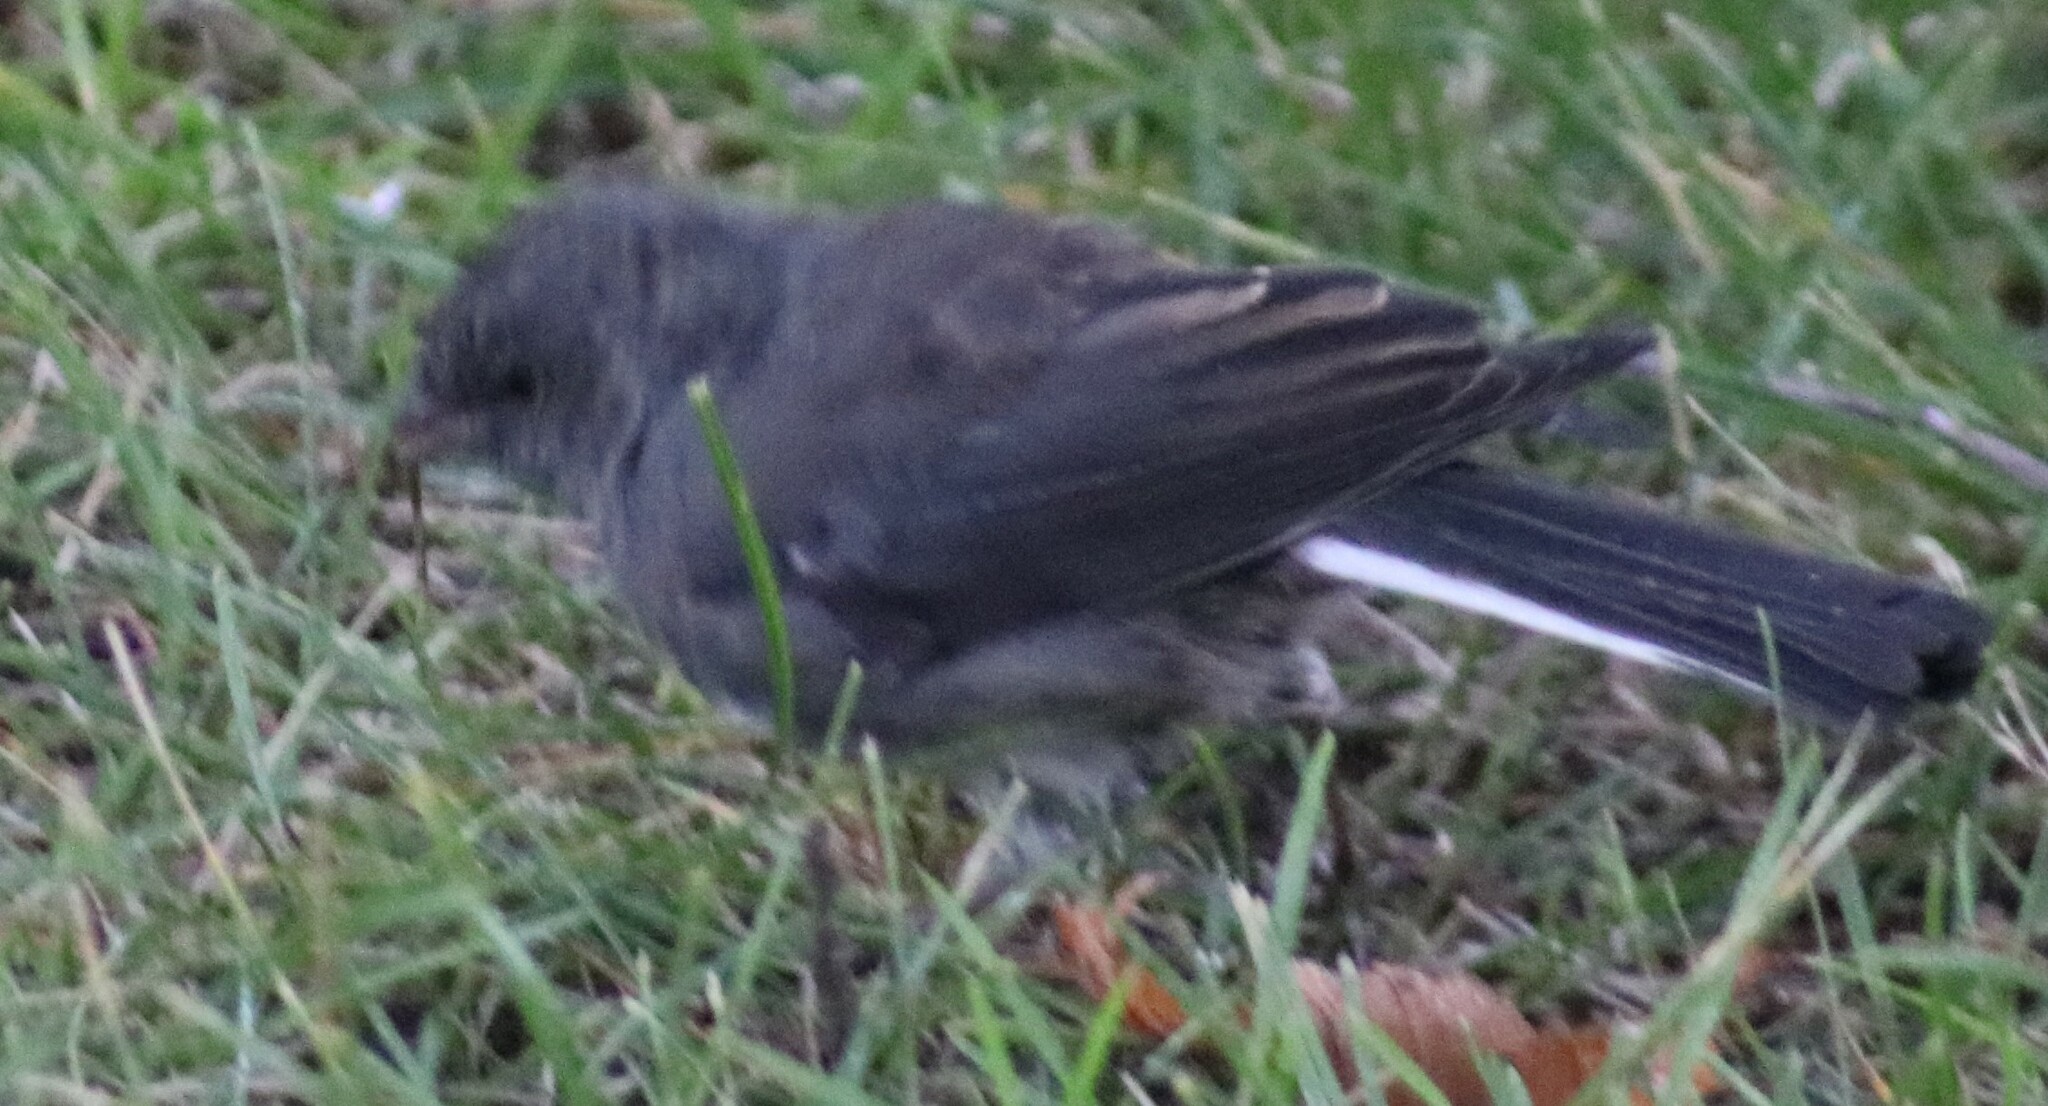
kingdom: Animalia
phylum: Chordata
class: Aves
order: Passeriformes
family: Passerellidae
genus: Junco
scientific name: Junco hyemalis
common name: Dark-eyed junco
